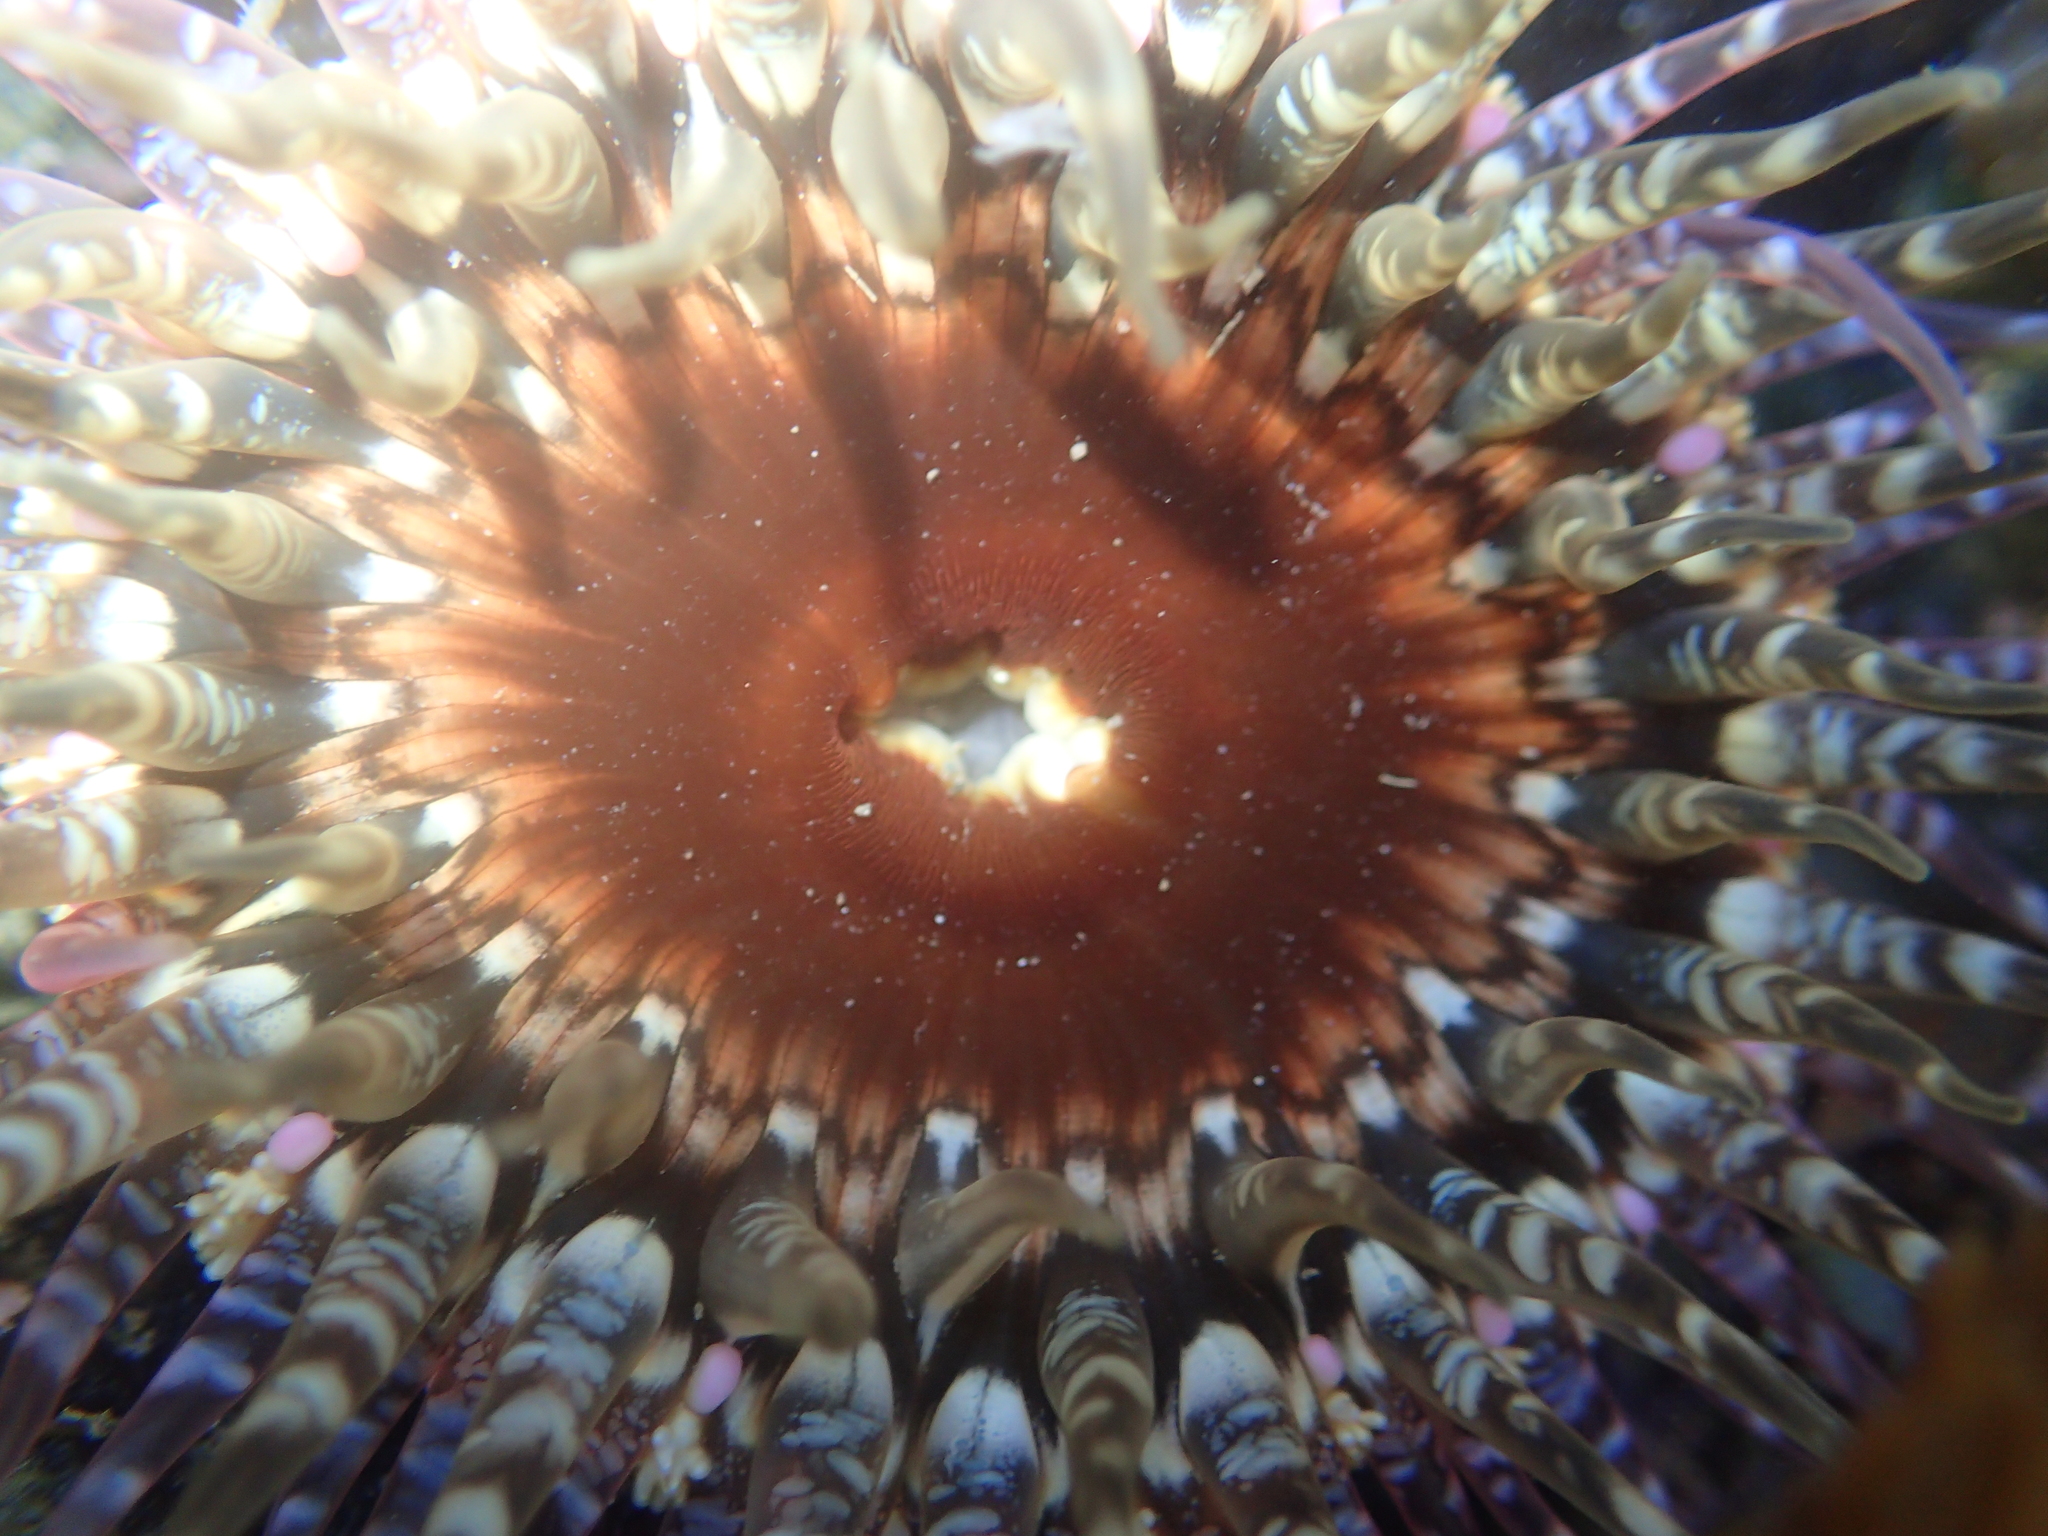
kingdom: Animalia
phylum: Cnidaria
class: Anthozoa
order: Actiniaria
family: Actiniidae
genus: Oulactis
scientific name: Oulactis muscosa
